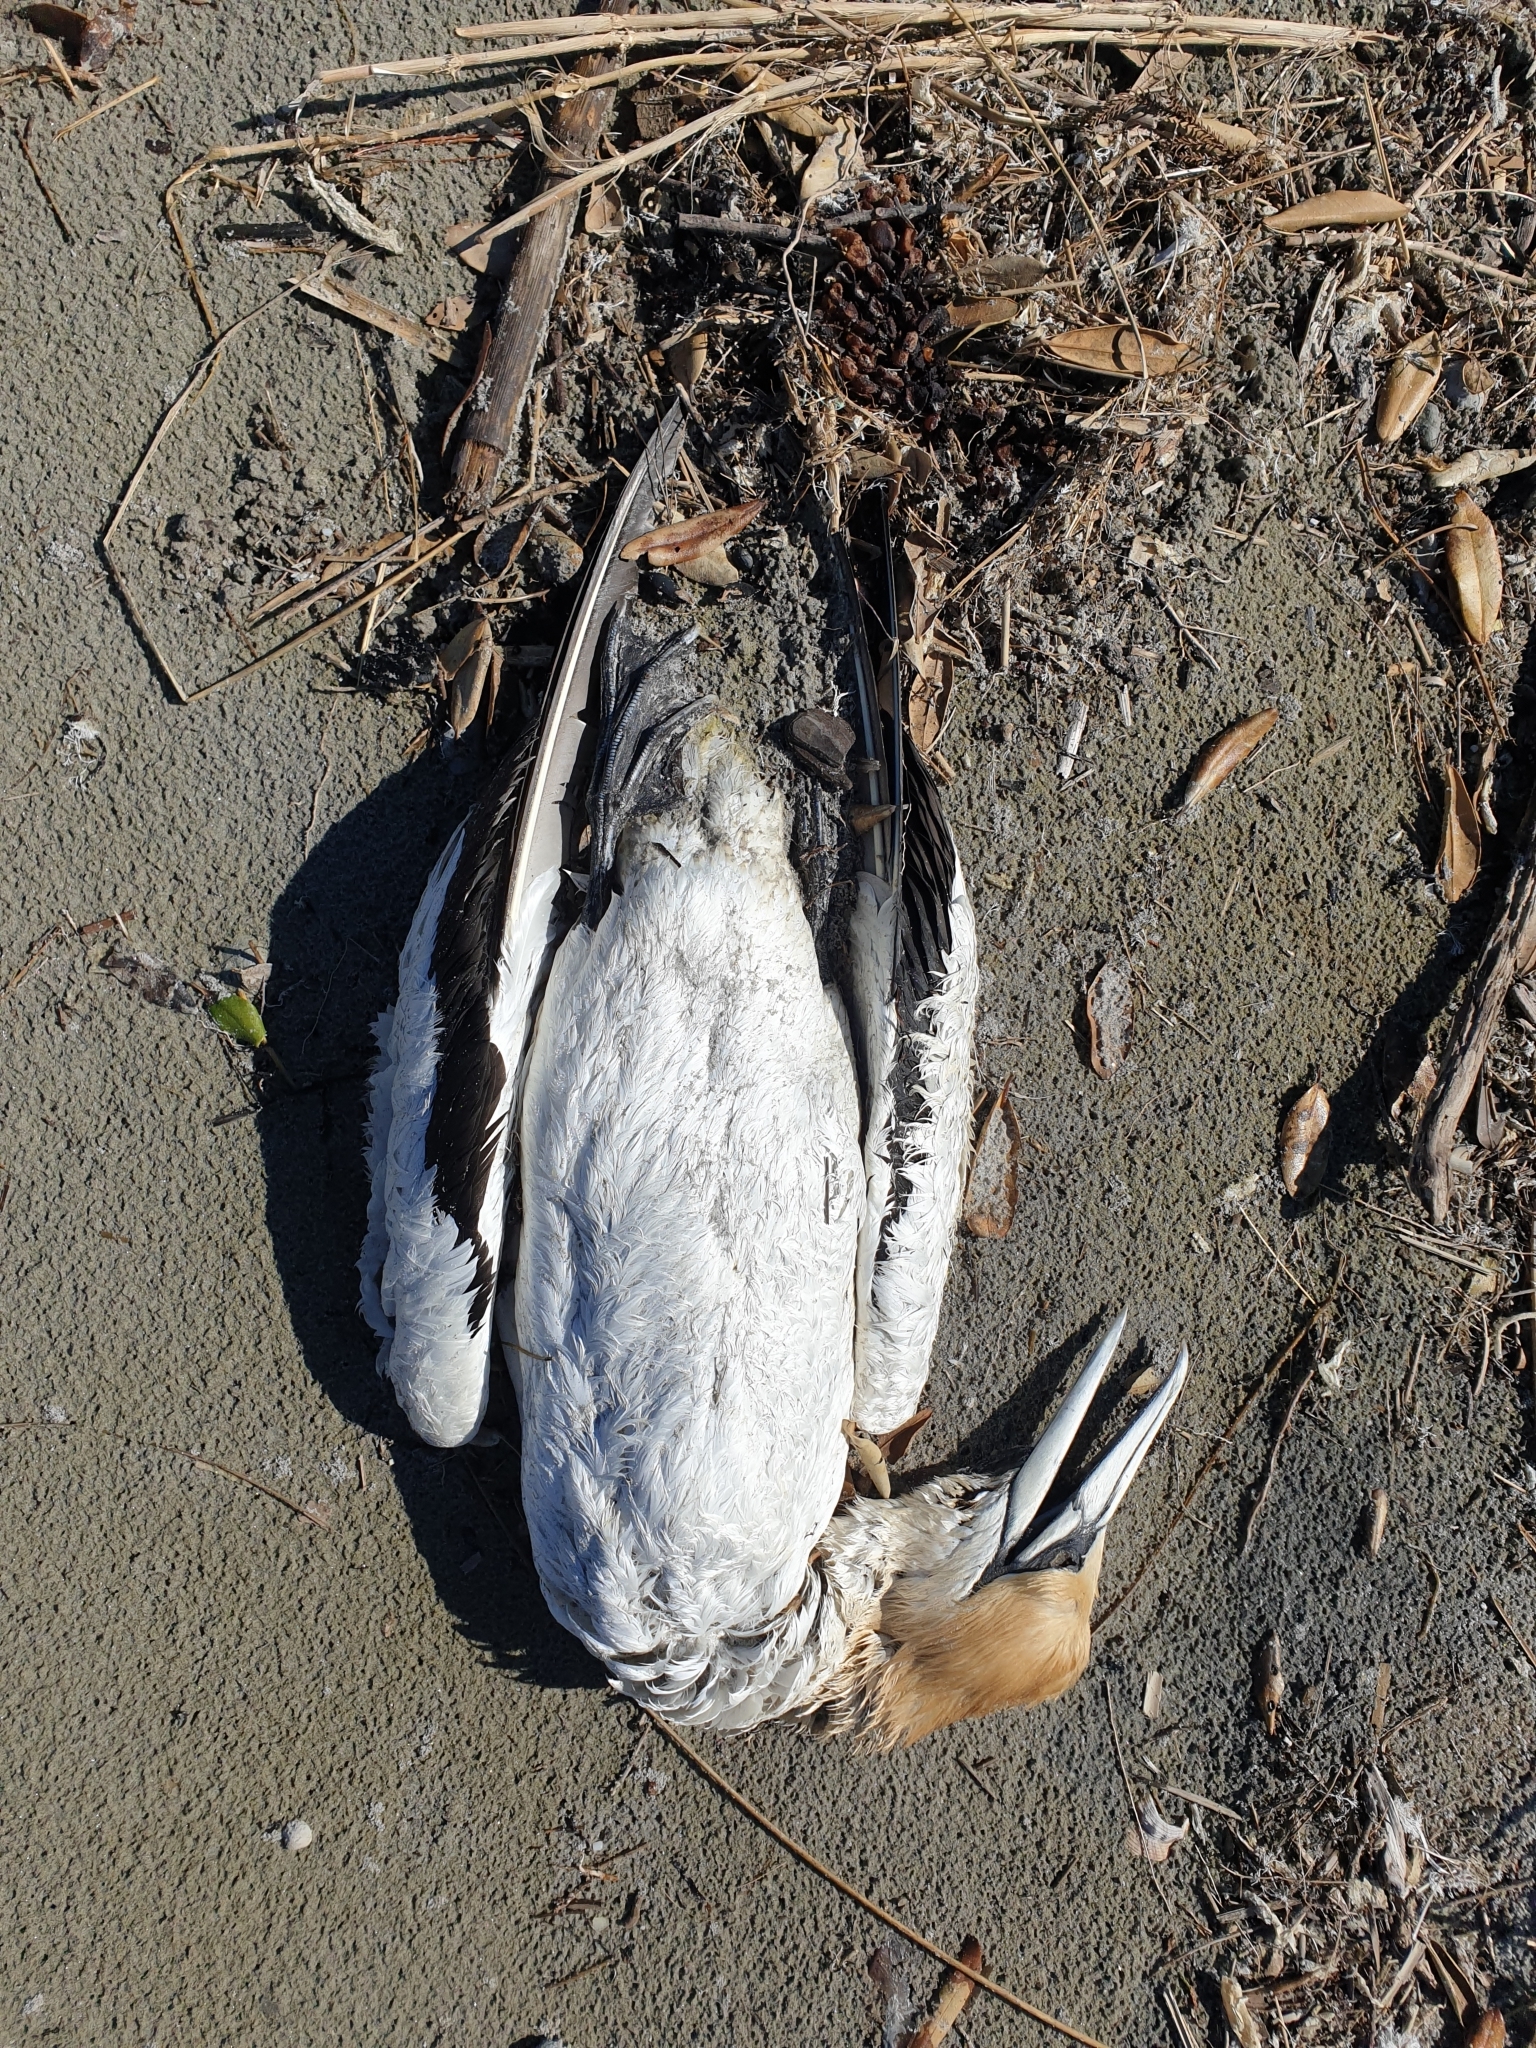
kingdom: Animalia
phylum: Chordata
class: Aves
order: Suliformes
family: Sulidae
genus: Morus
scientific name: Morus serrator
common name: Australasian gannet
